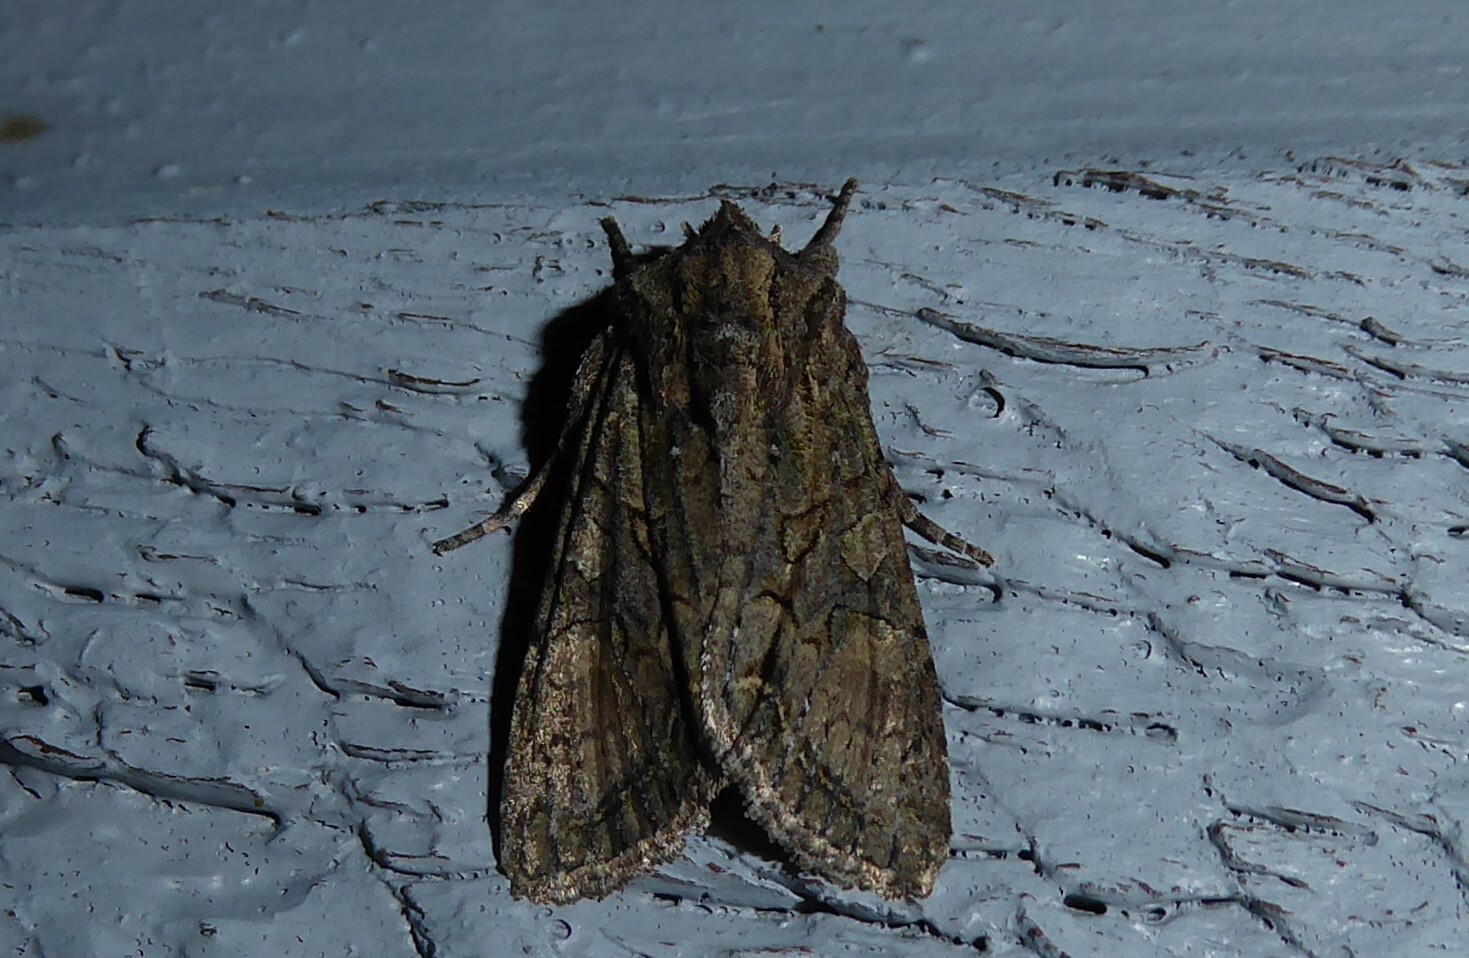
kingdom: Animalia
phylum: Arthropoda
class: Insecta
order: Lepidoptera
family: Noctuidae
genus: Ichneutica
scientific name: Ichneutica mutans
